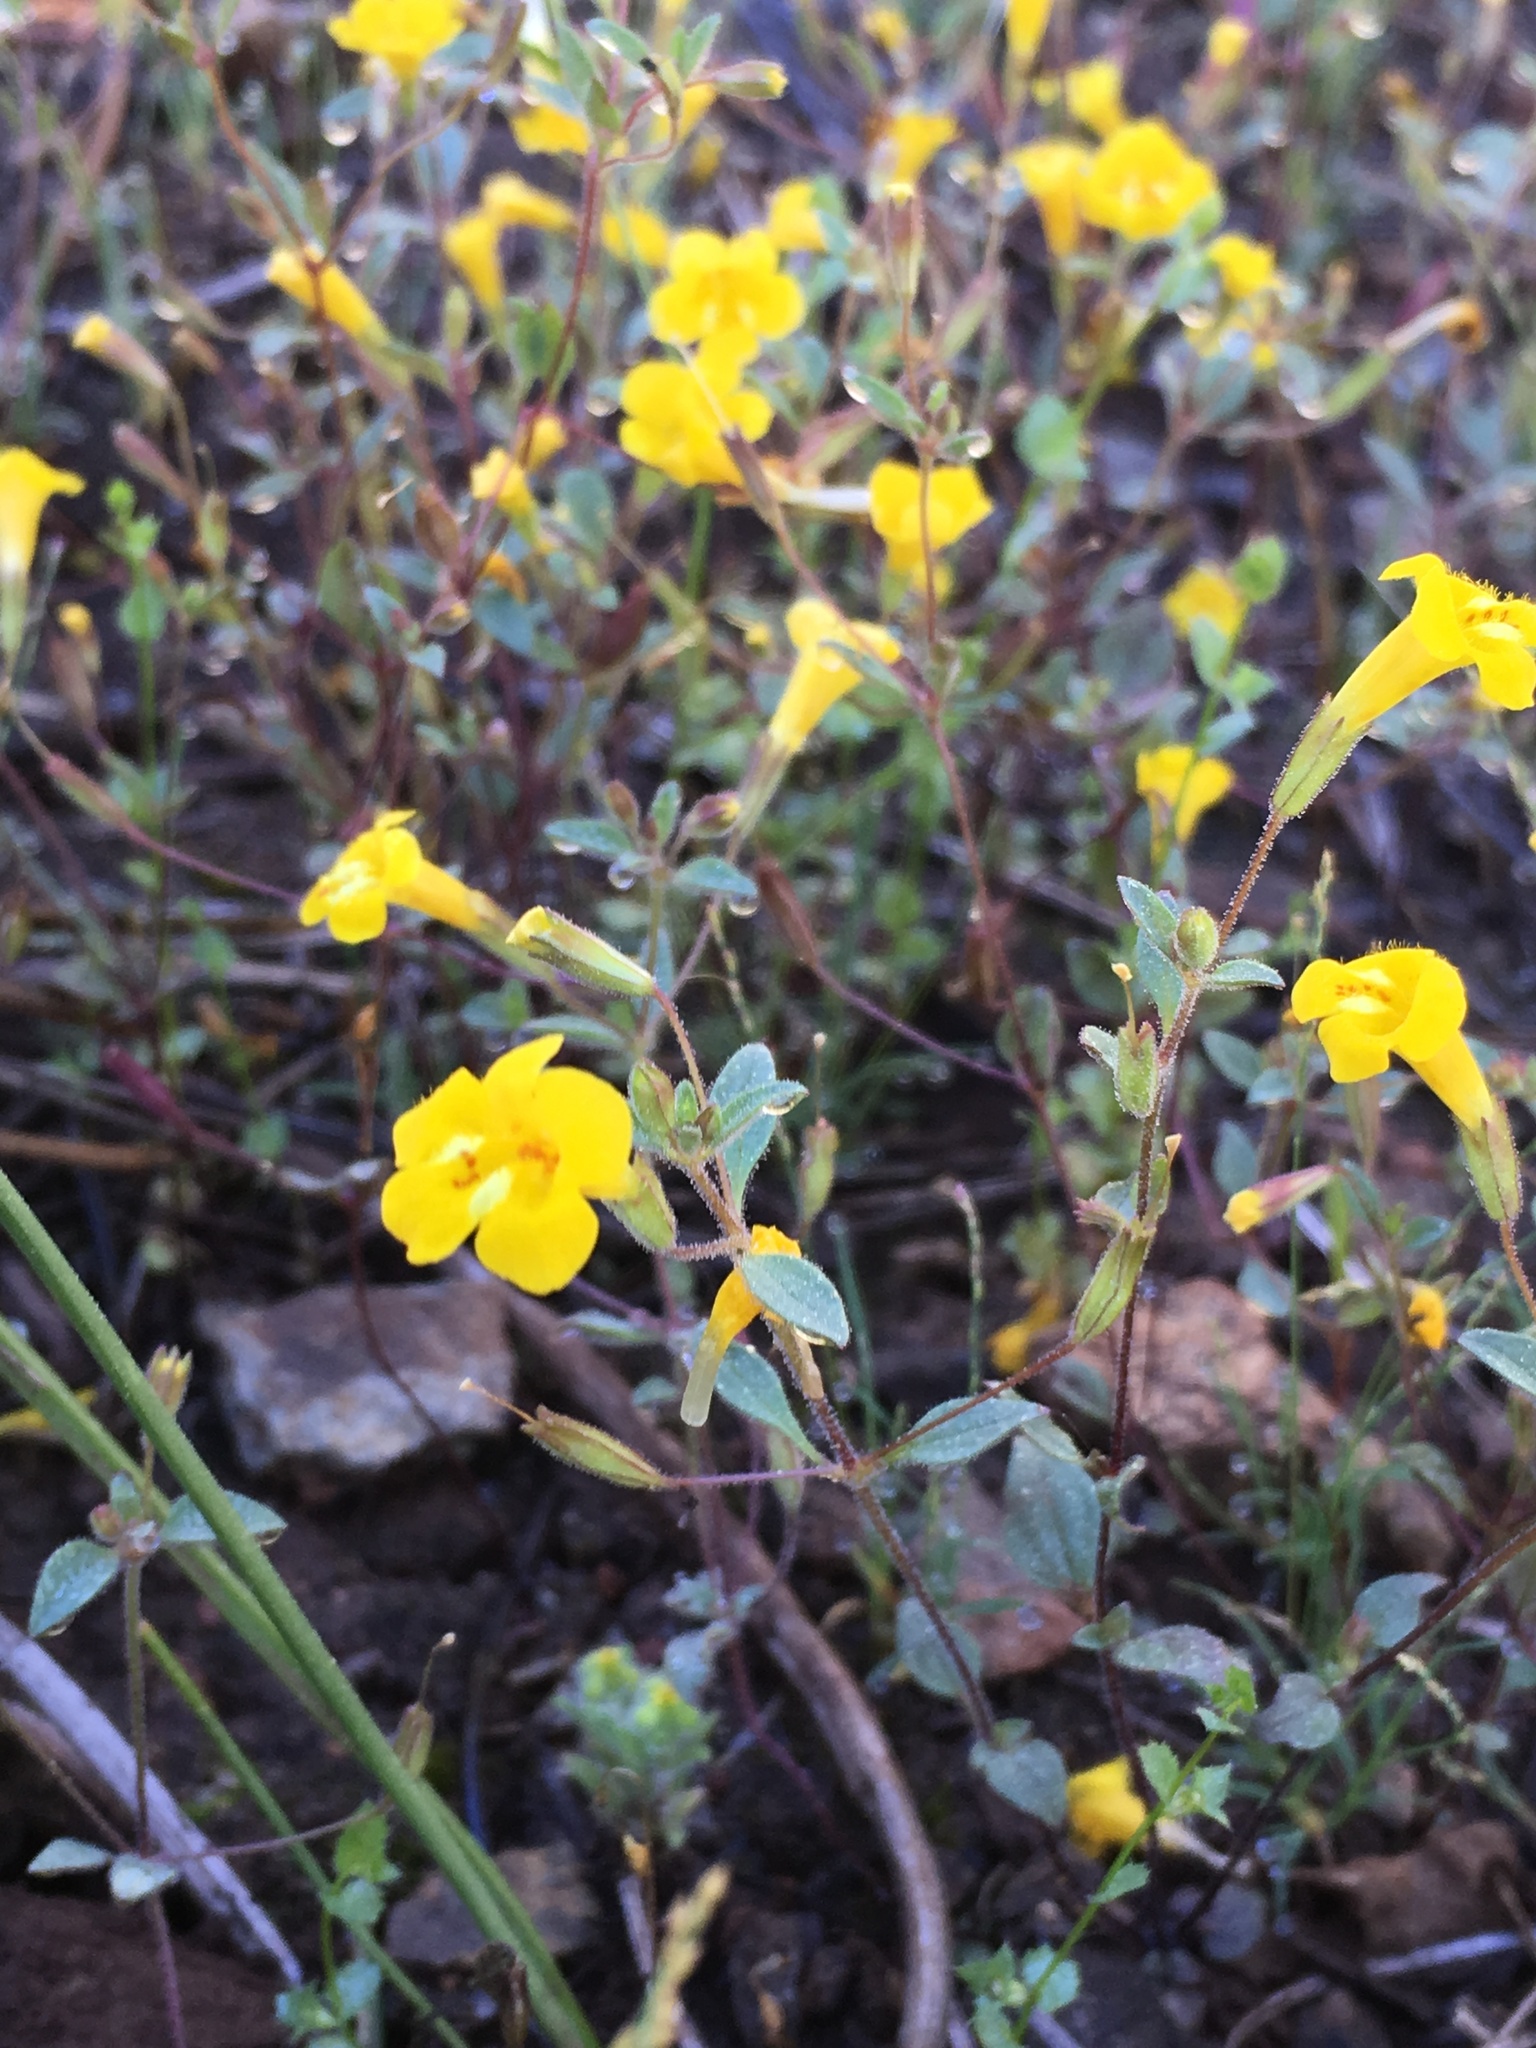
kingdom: Plantae
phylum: Tracheophyta
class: Magnoliopsida
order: Lamiales
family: Phrymaceae
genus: Erythranthe
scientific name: Erythranthe pulsiferae
